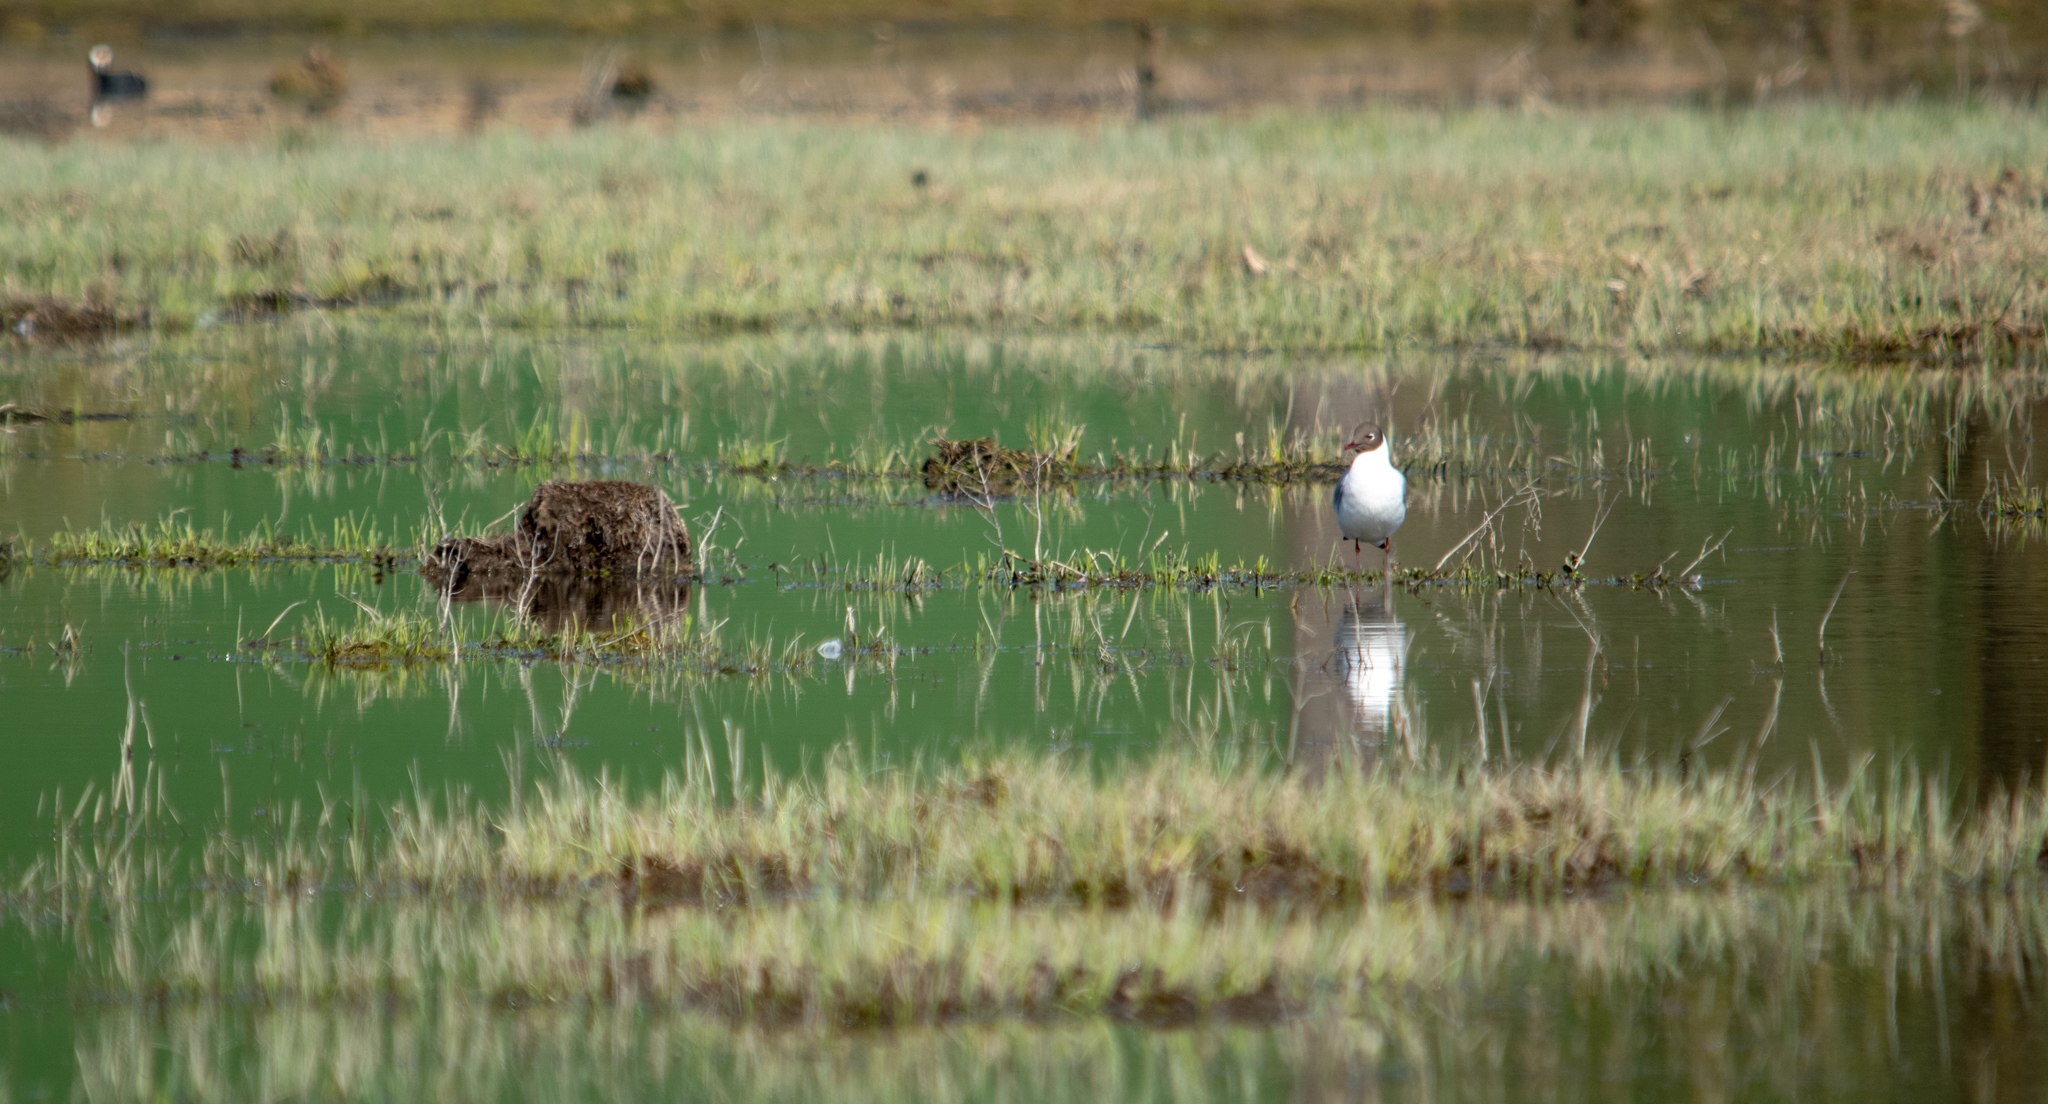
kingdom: Animalia
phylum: Chordata
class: Aves
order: Charadriiformes
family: Laridae
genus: Chroicocephalus
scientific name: Chroicocephalus ridibundus
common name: Black-headed gull
